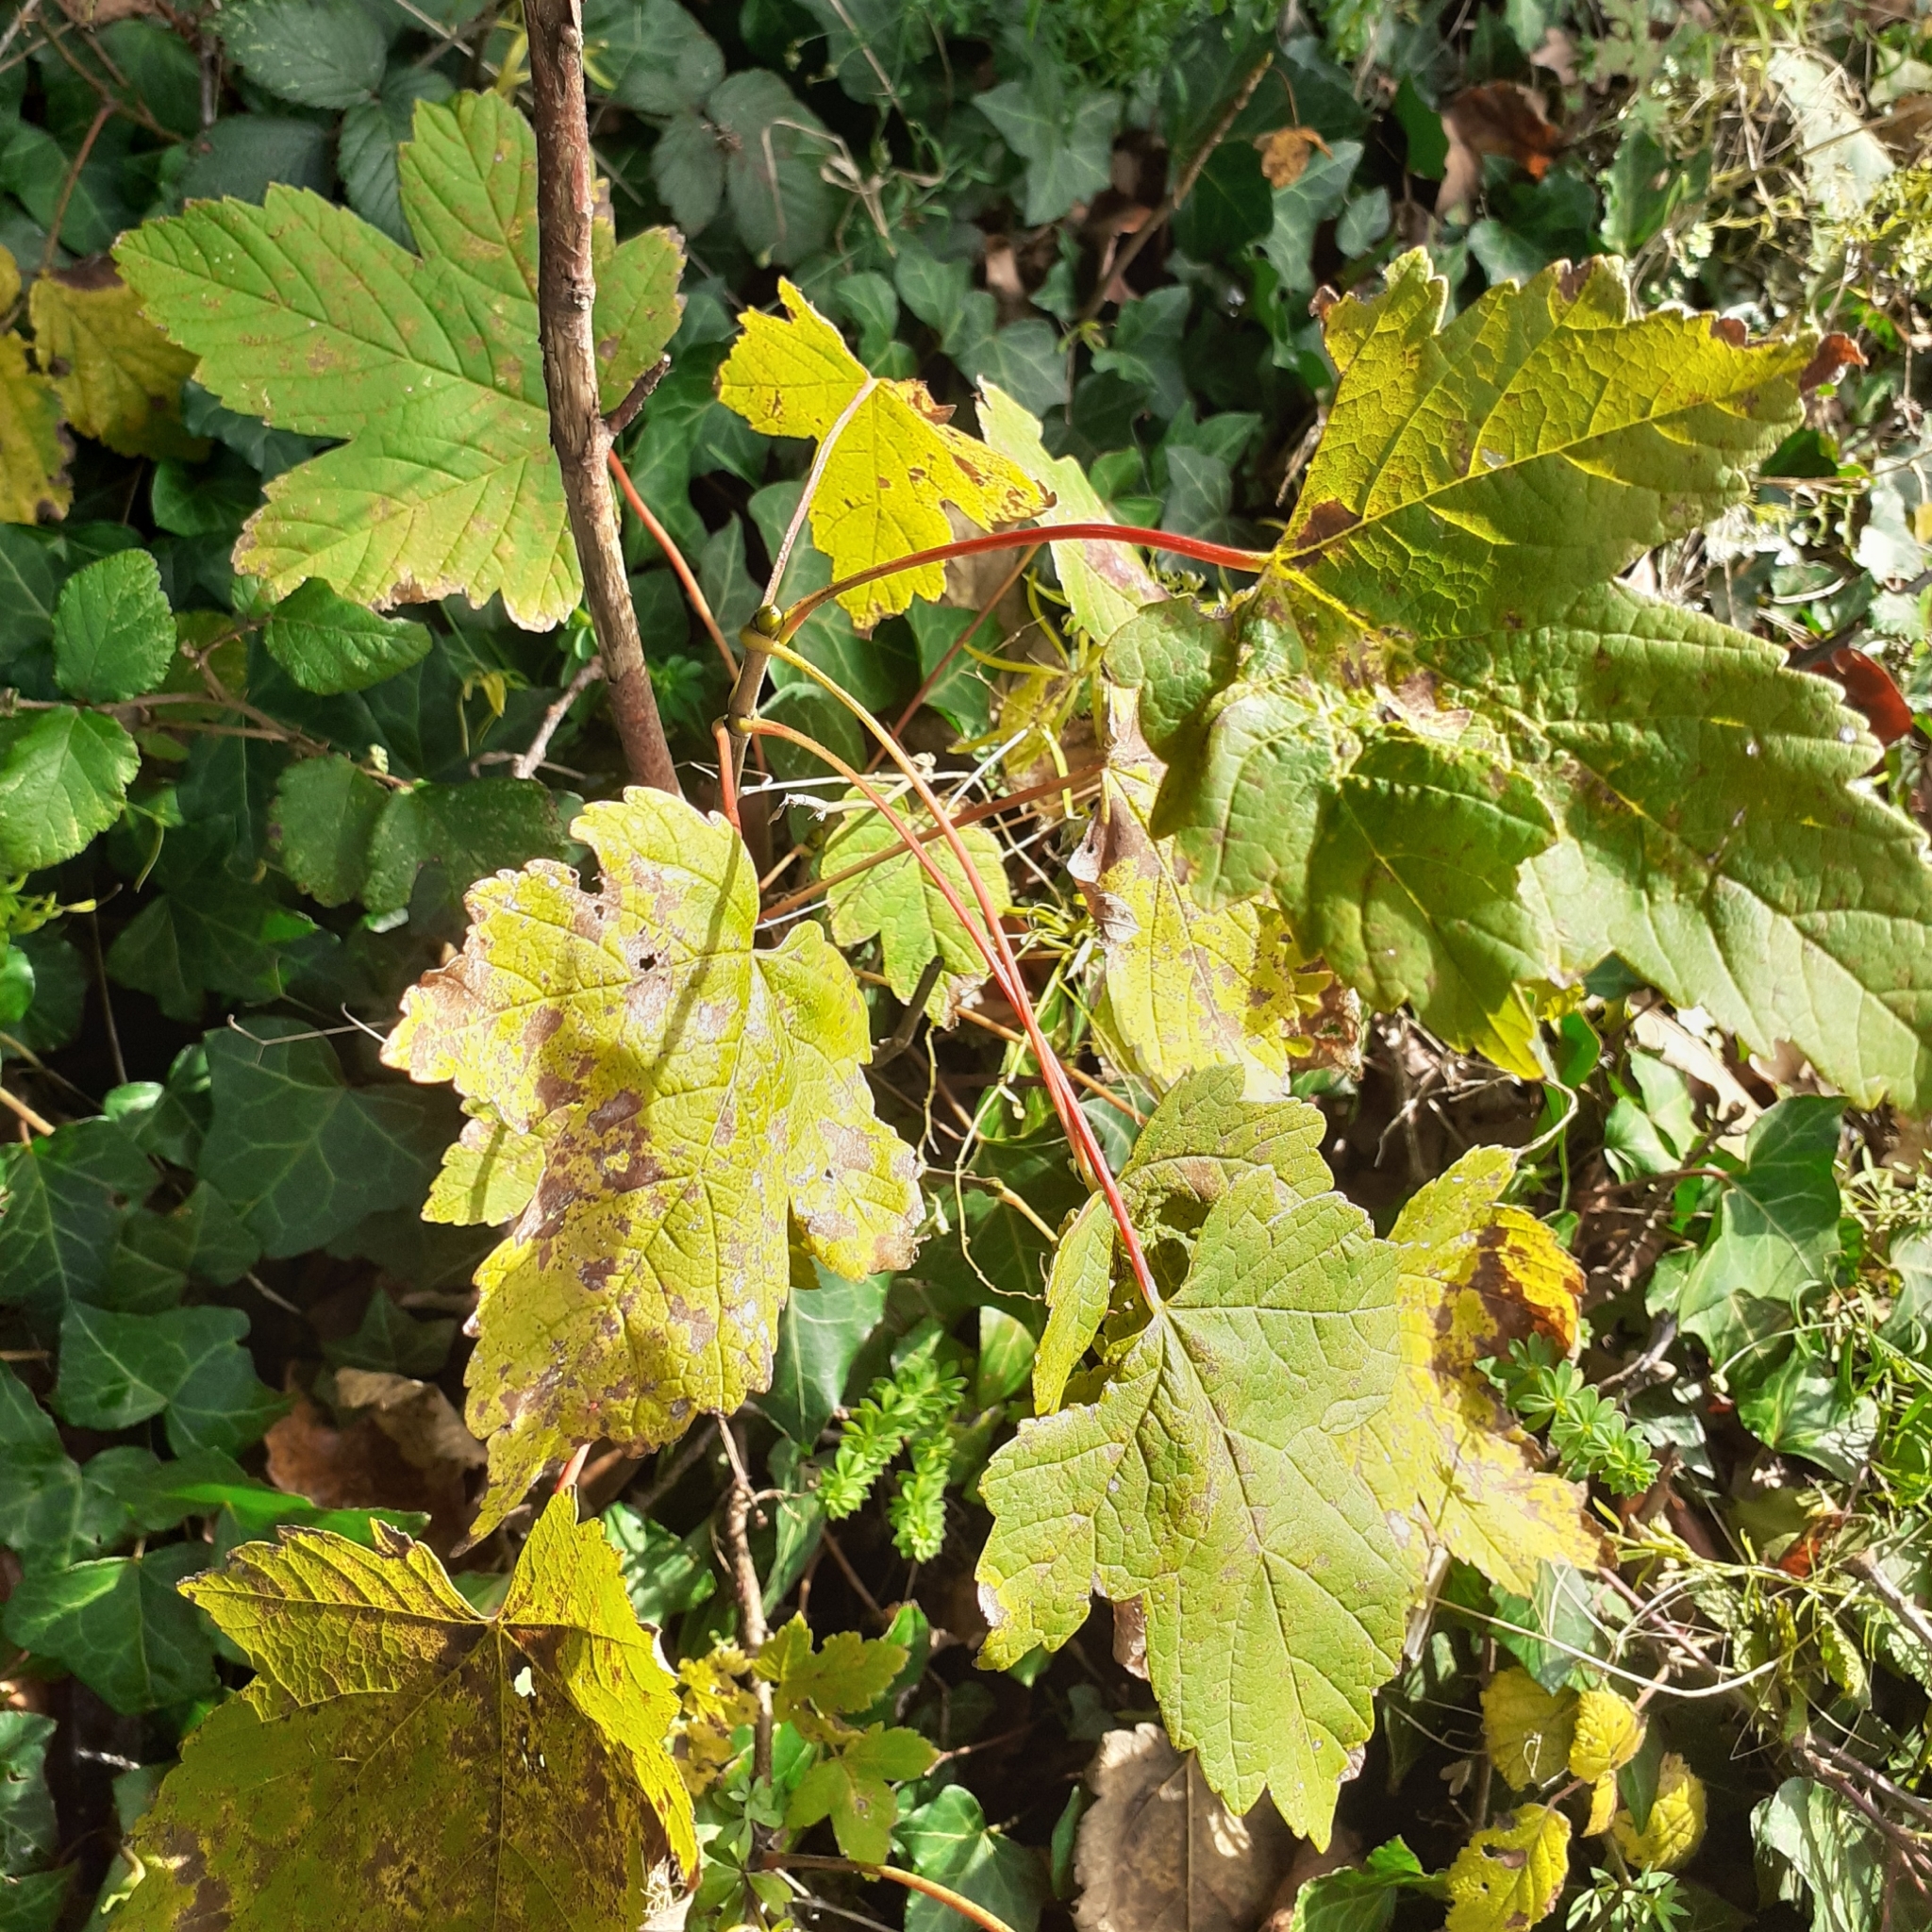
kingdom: Plantae
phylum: Tracheophyta
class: Magnoliopsida
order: Sapindales
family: Sapindaceae
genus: Acer
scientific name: Acer pseudoplatanus
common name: Sycamore
